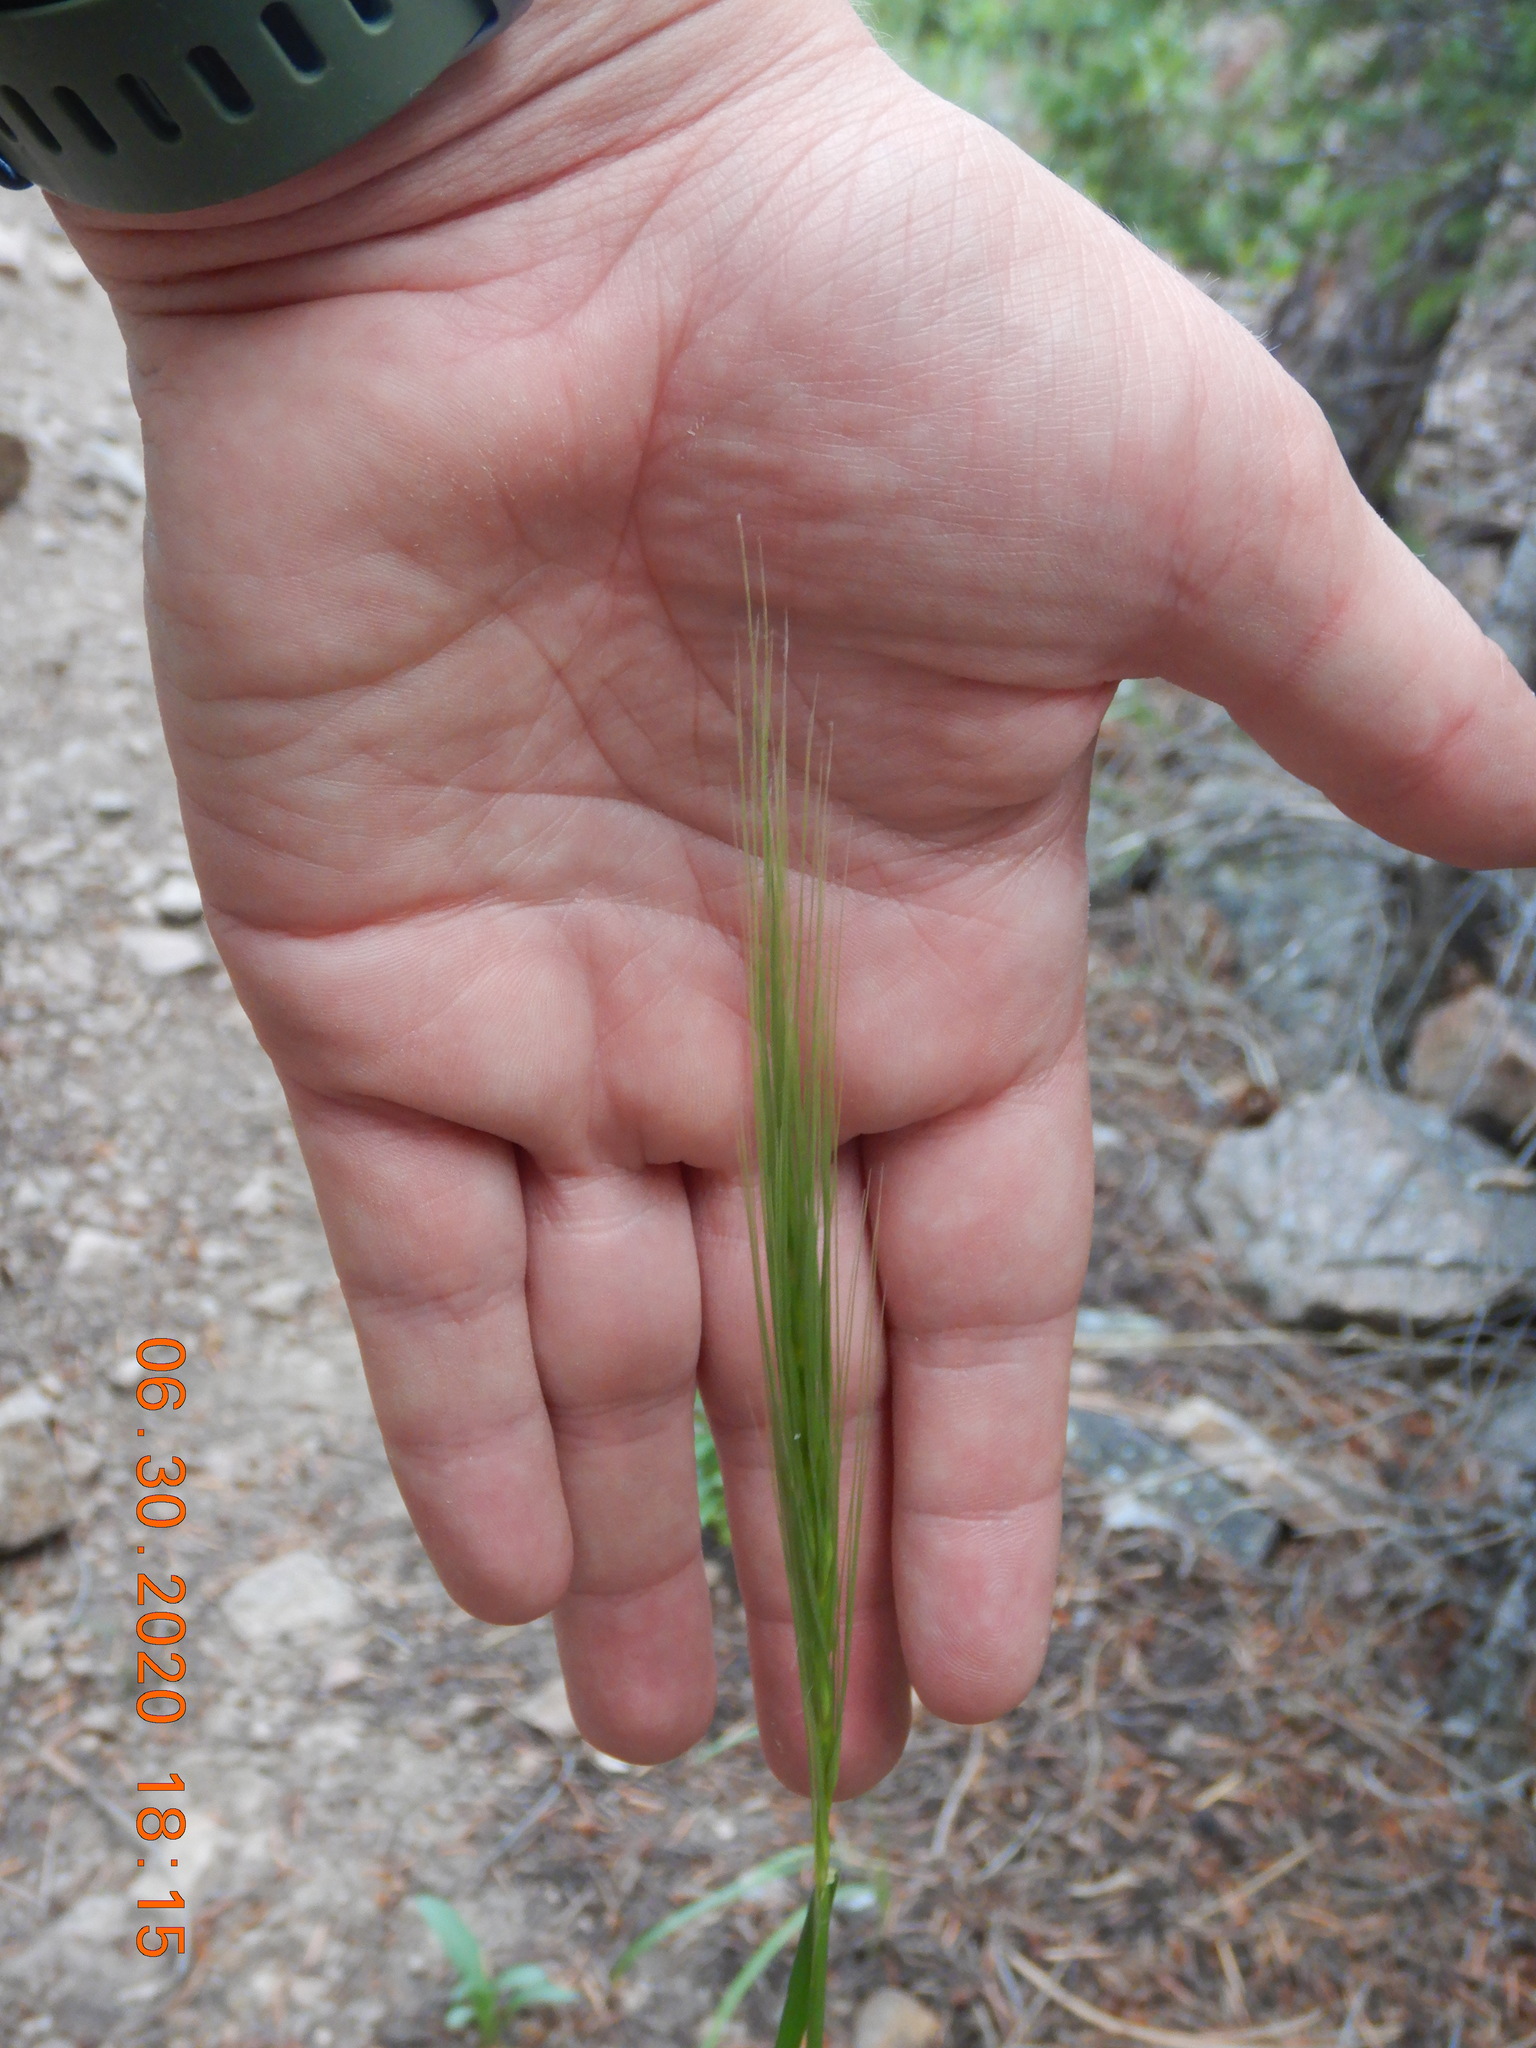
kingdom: Plantae
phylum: Tracheophyta
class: Liliopsida
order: Poales
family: Poaceae
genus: Elymus
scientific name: Elymus elymoides
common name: Bottlebrush squirreltail
